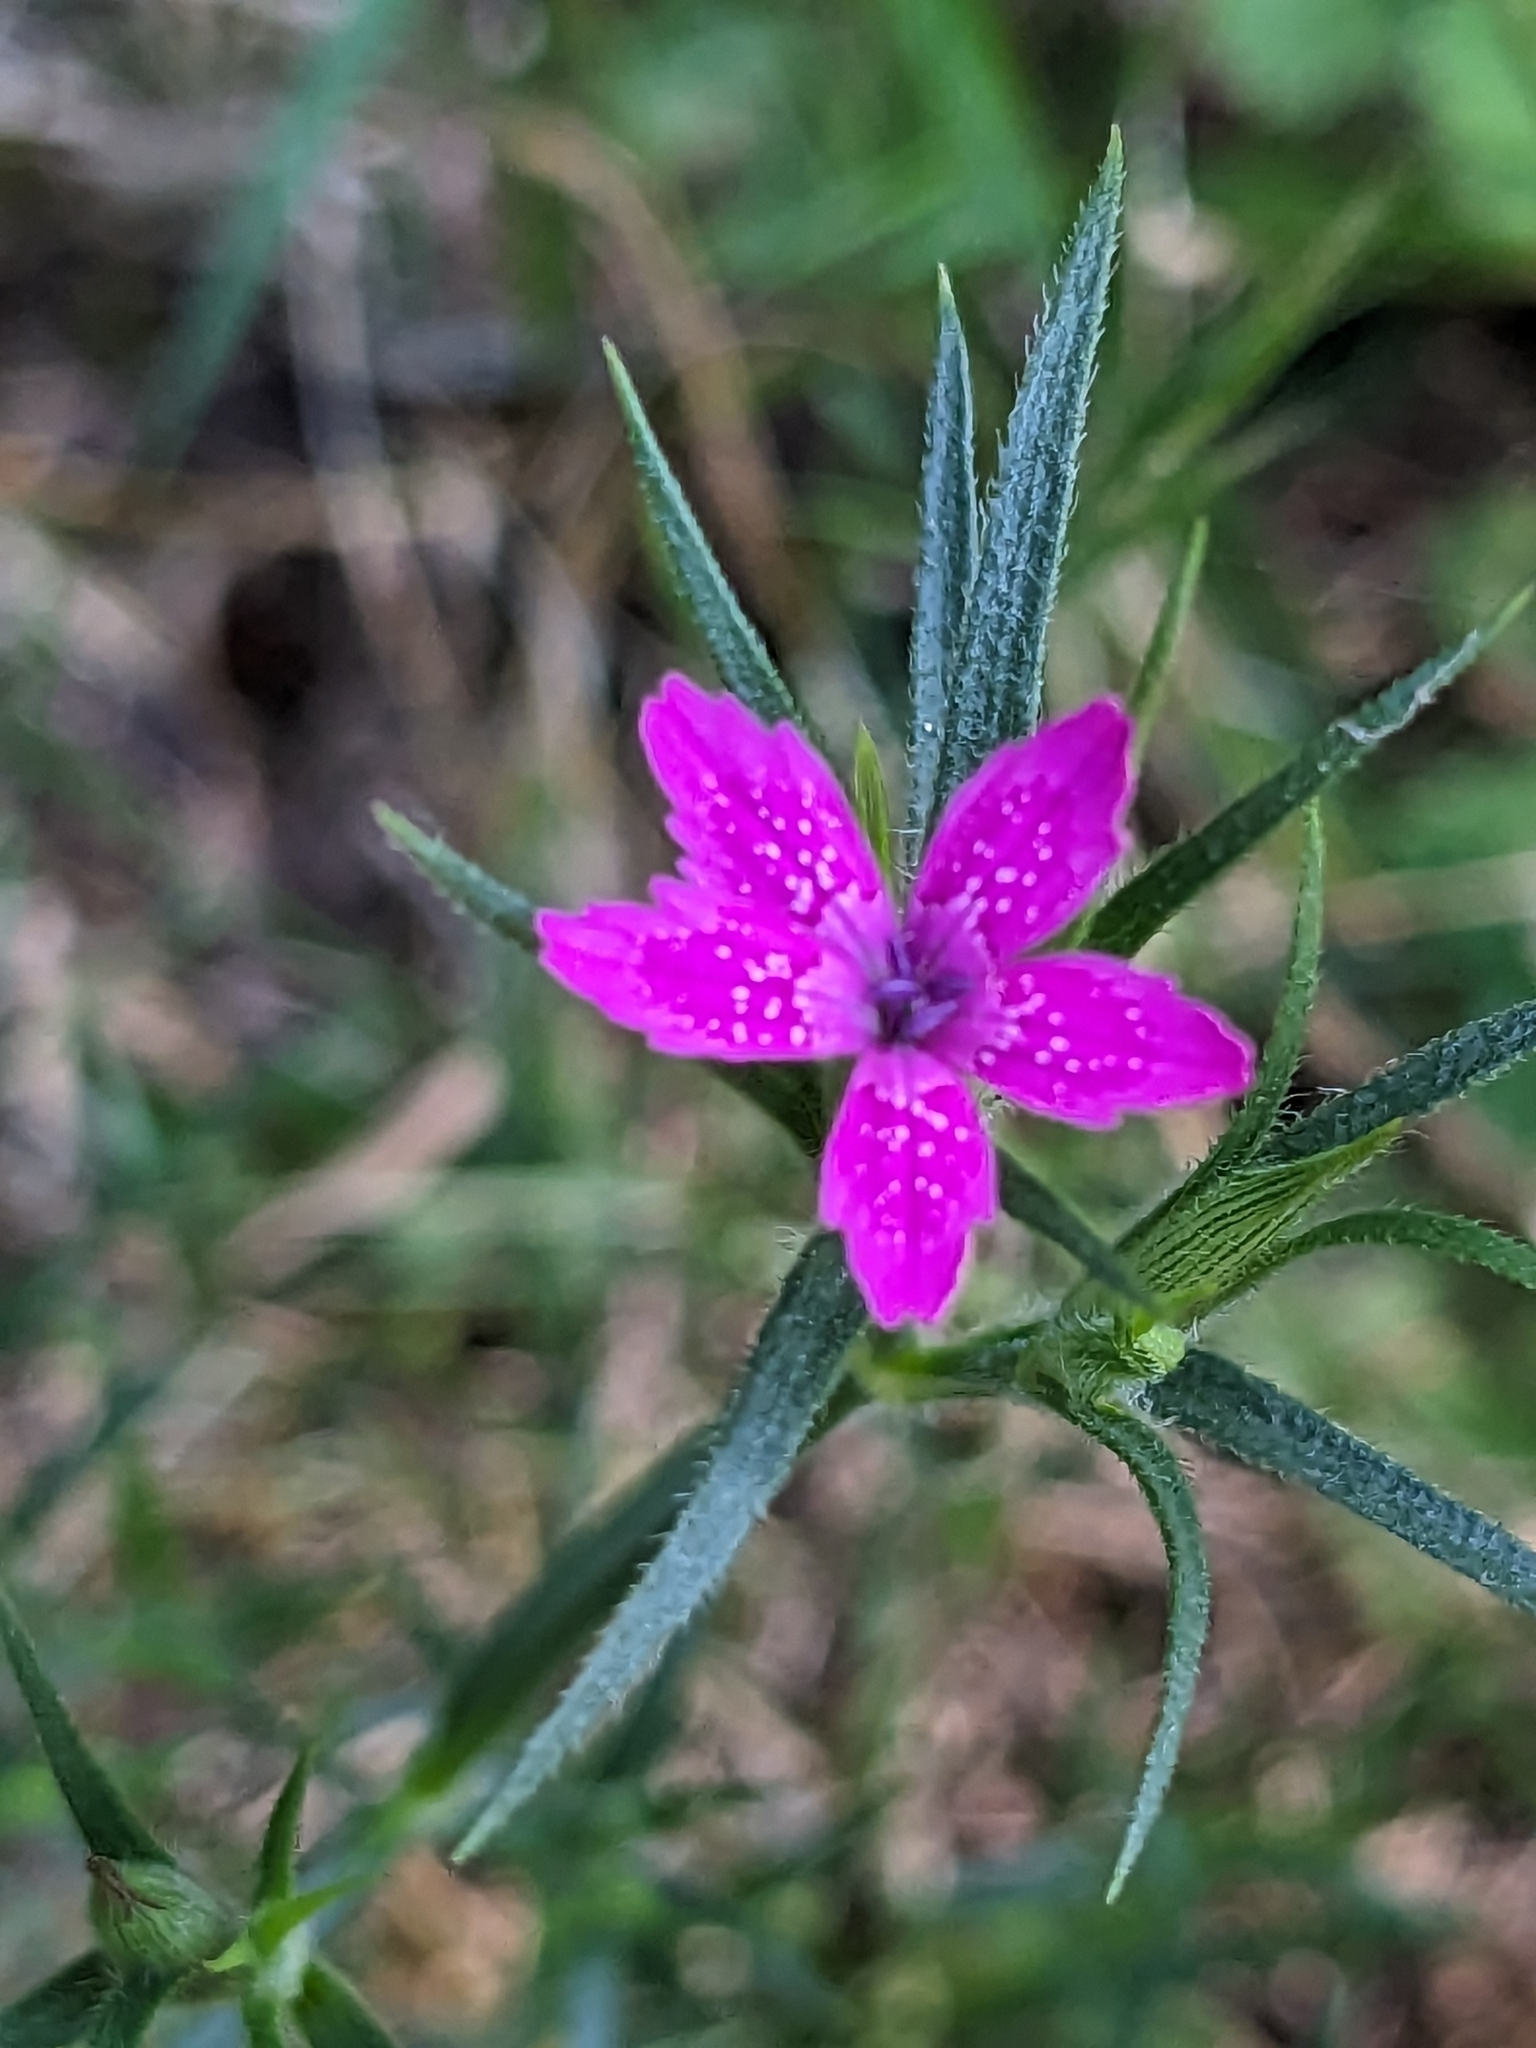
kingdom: Plantae
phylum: Tracheophyta
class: Magnoliopsida
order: Caryophyllales
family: Caryophyllaceae
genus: Dianthus
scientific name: Dianthus armeria
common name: Deptford pink
